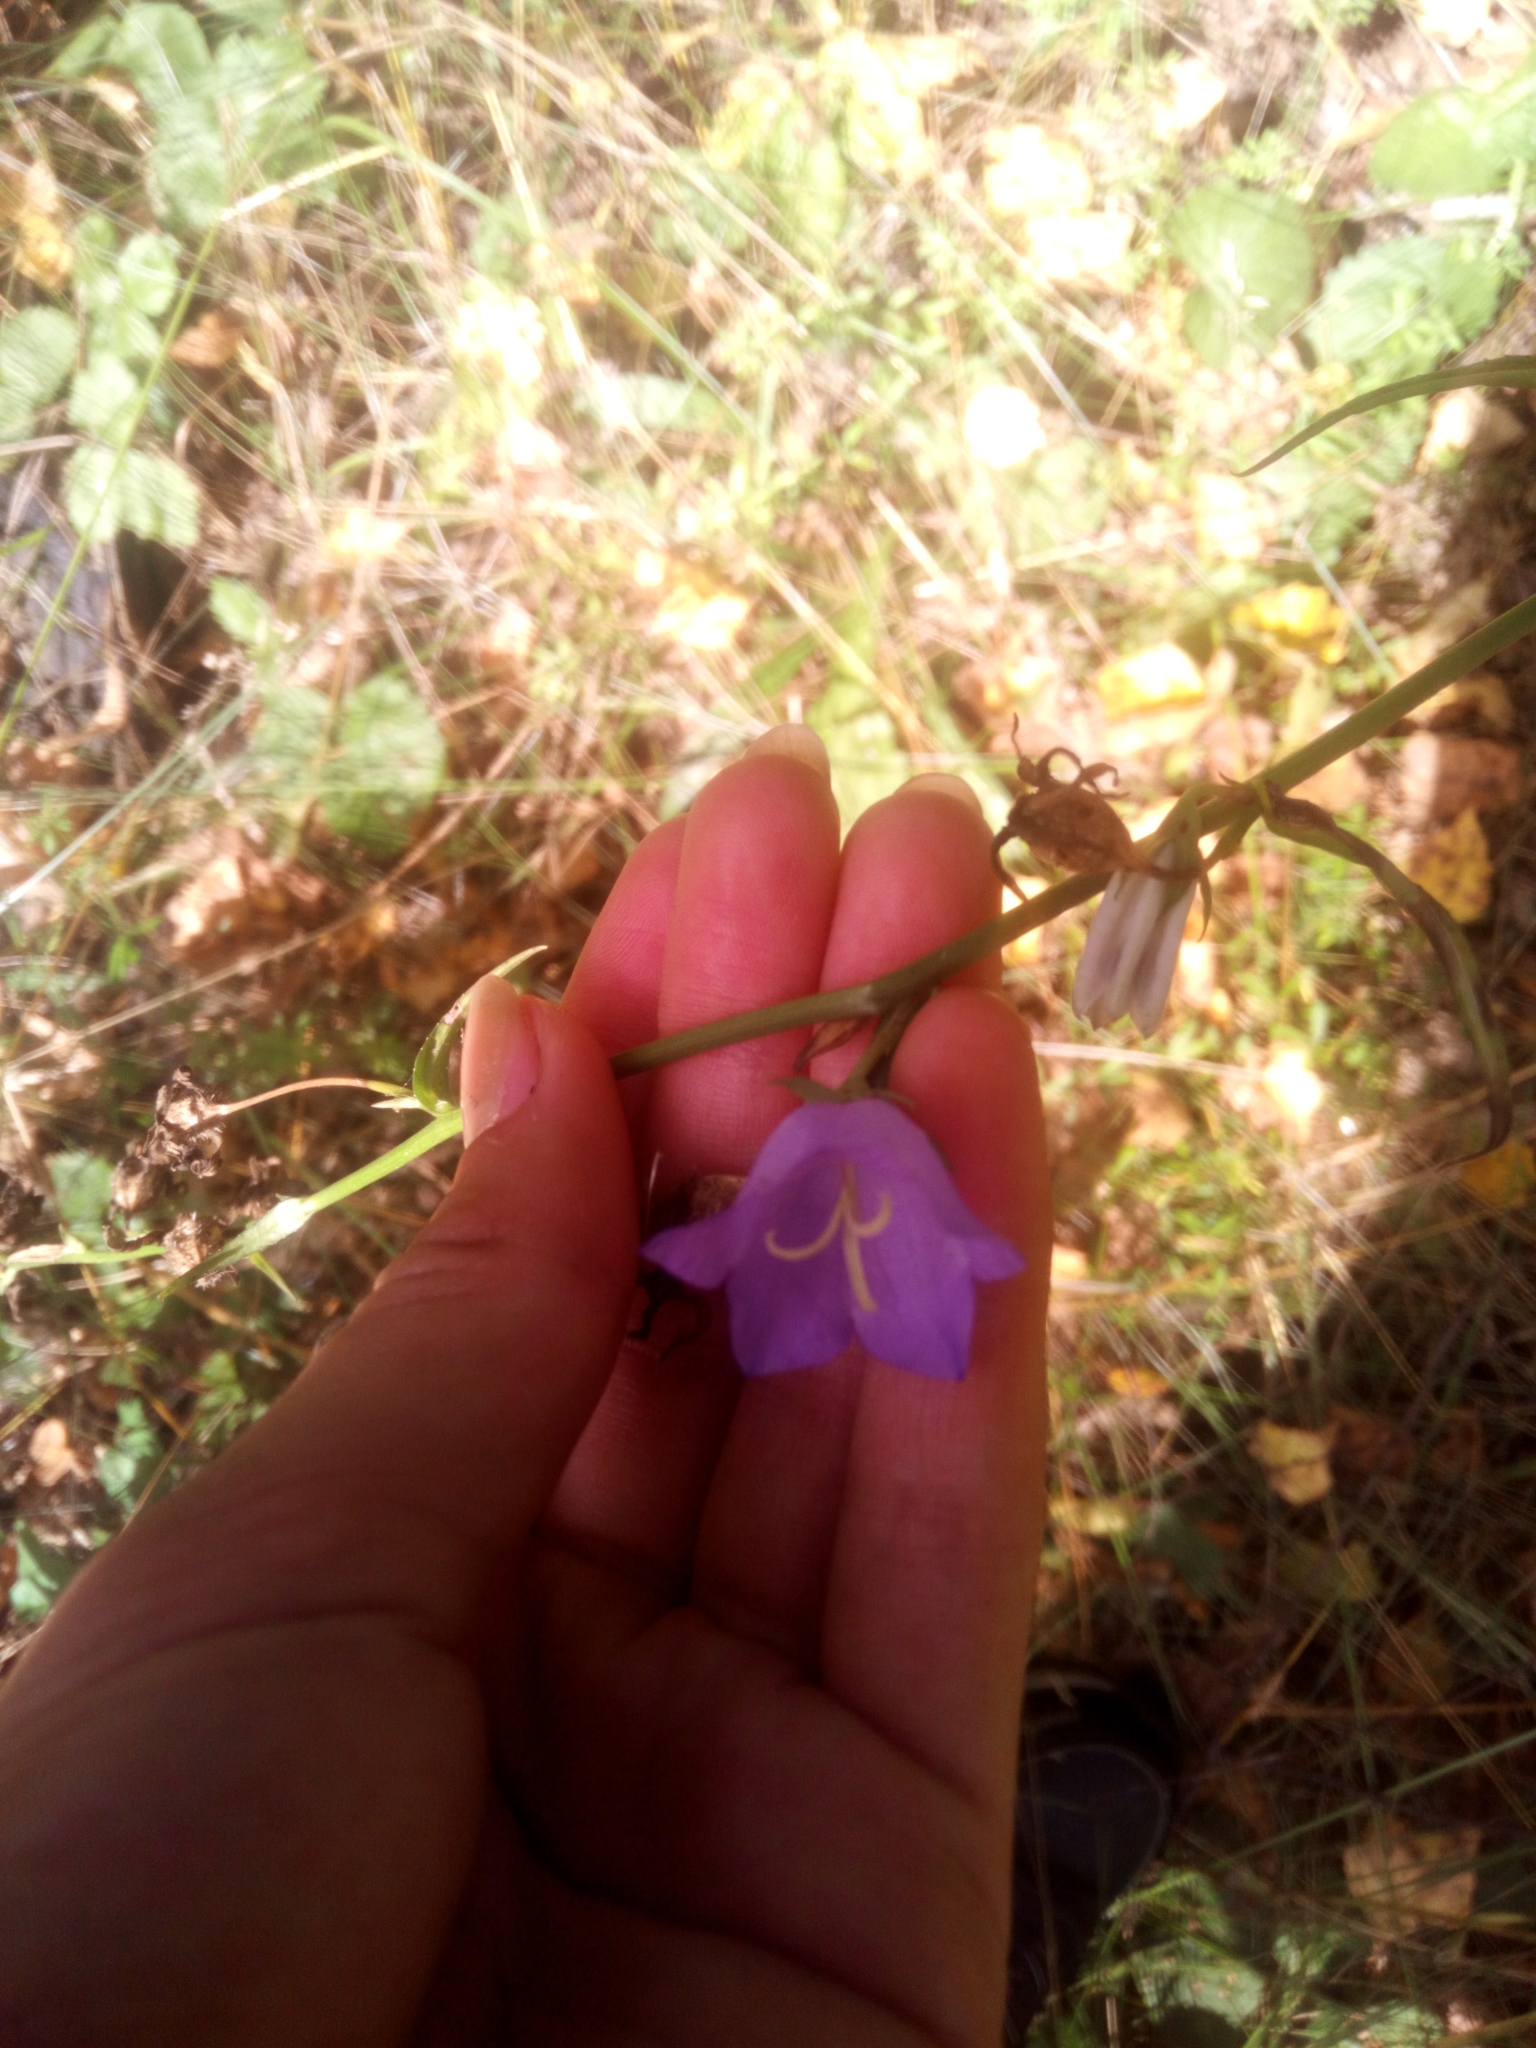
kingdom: Plantae
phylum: Tracheophyta
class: Magnoliopsida
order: Asterales
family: Campanulaceae
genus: Campanula
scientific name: Campanula persicifolia
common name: Peach-leaved bellflower
